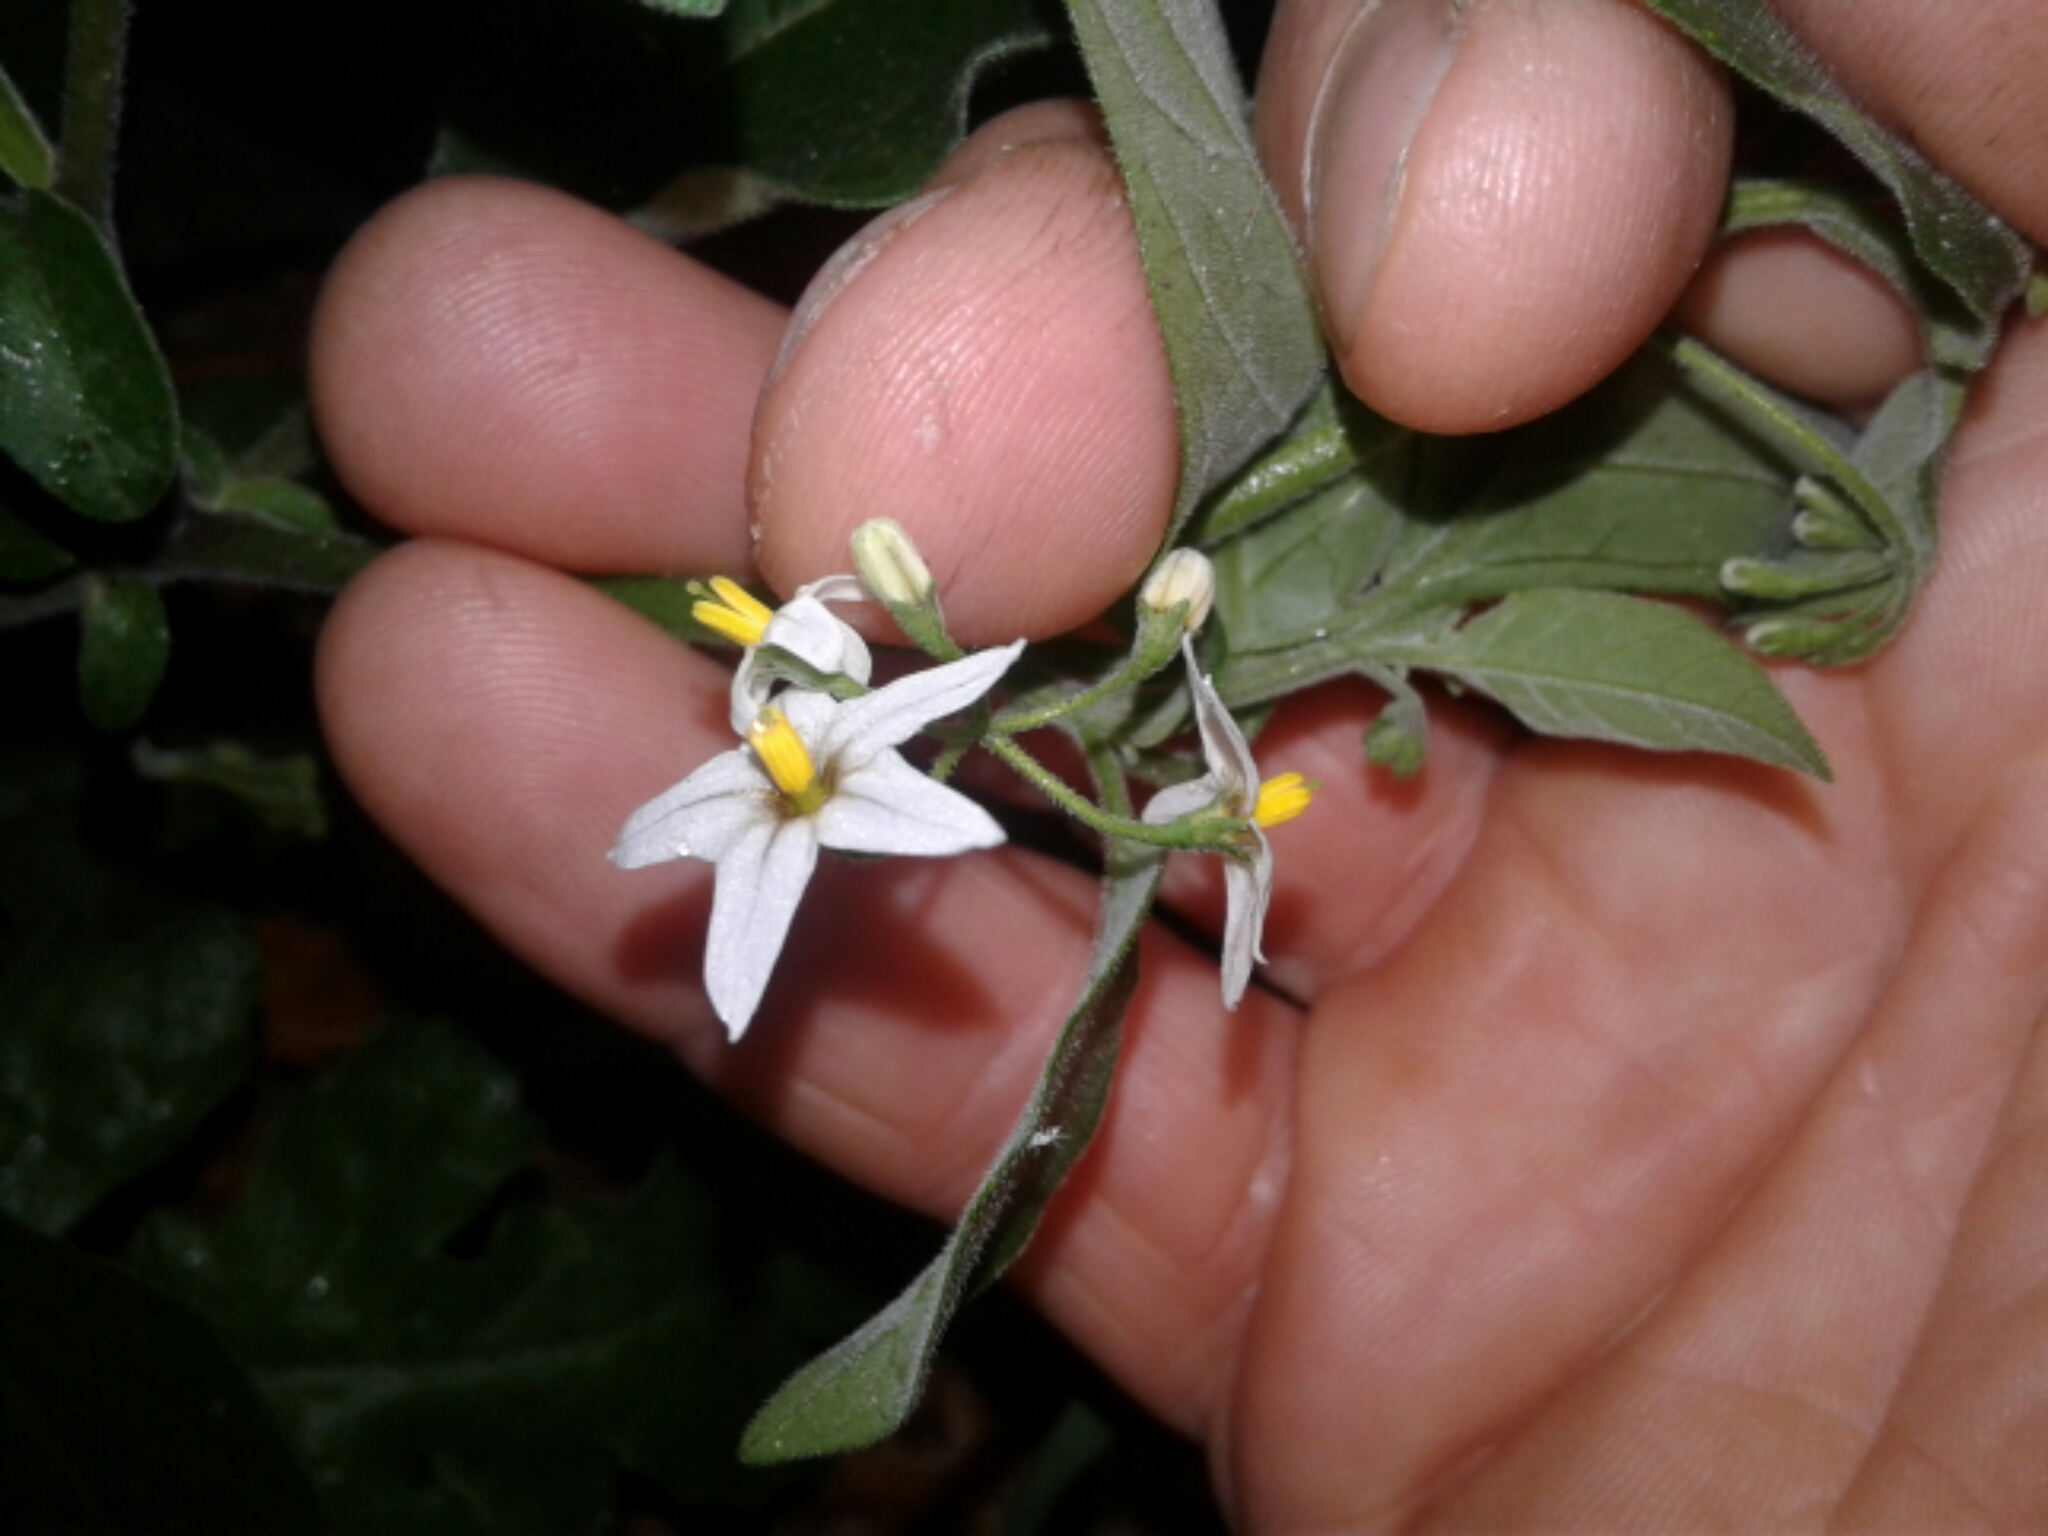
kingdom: Plantae
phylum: Tracheophyta
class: Magnoliopsida
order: Solanales
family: Solanaceae
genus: Solanum
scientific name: Solanum chenopodioides
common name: Tall nightshade
